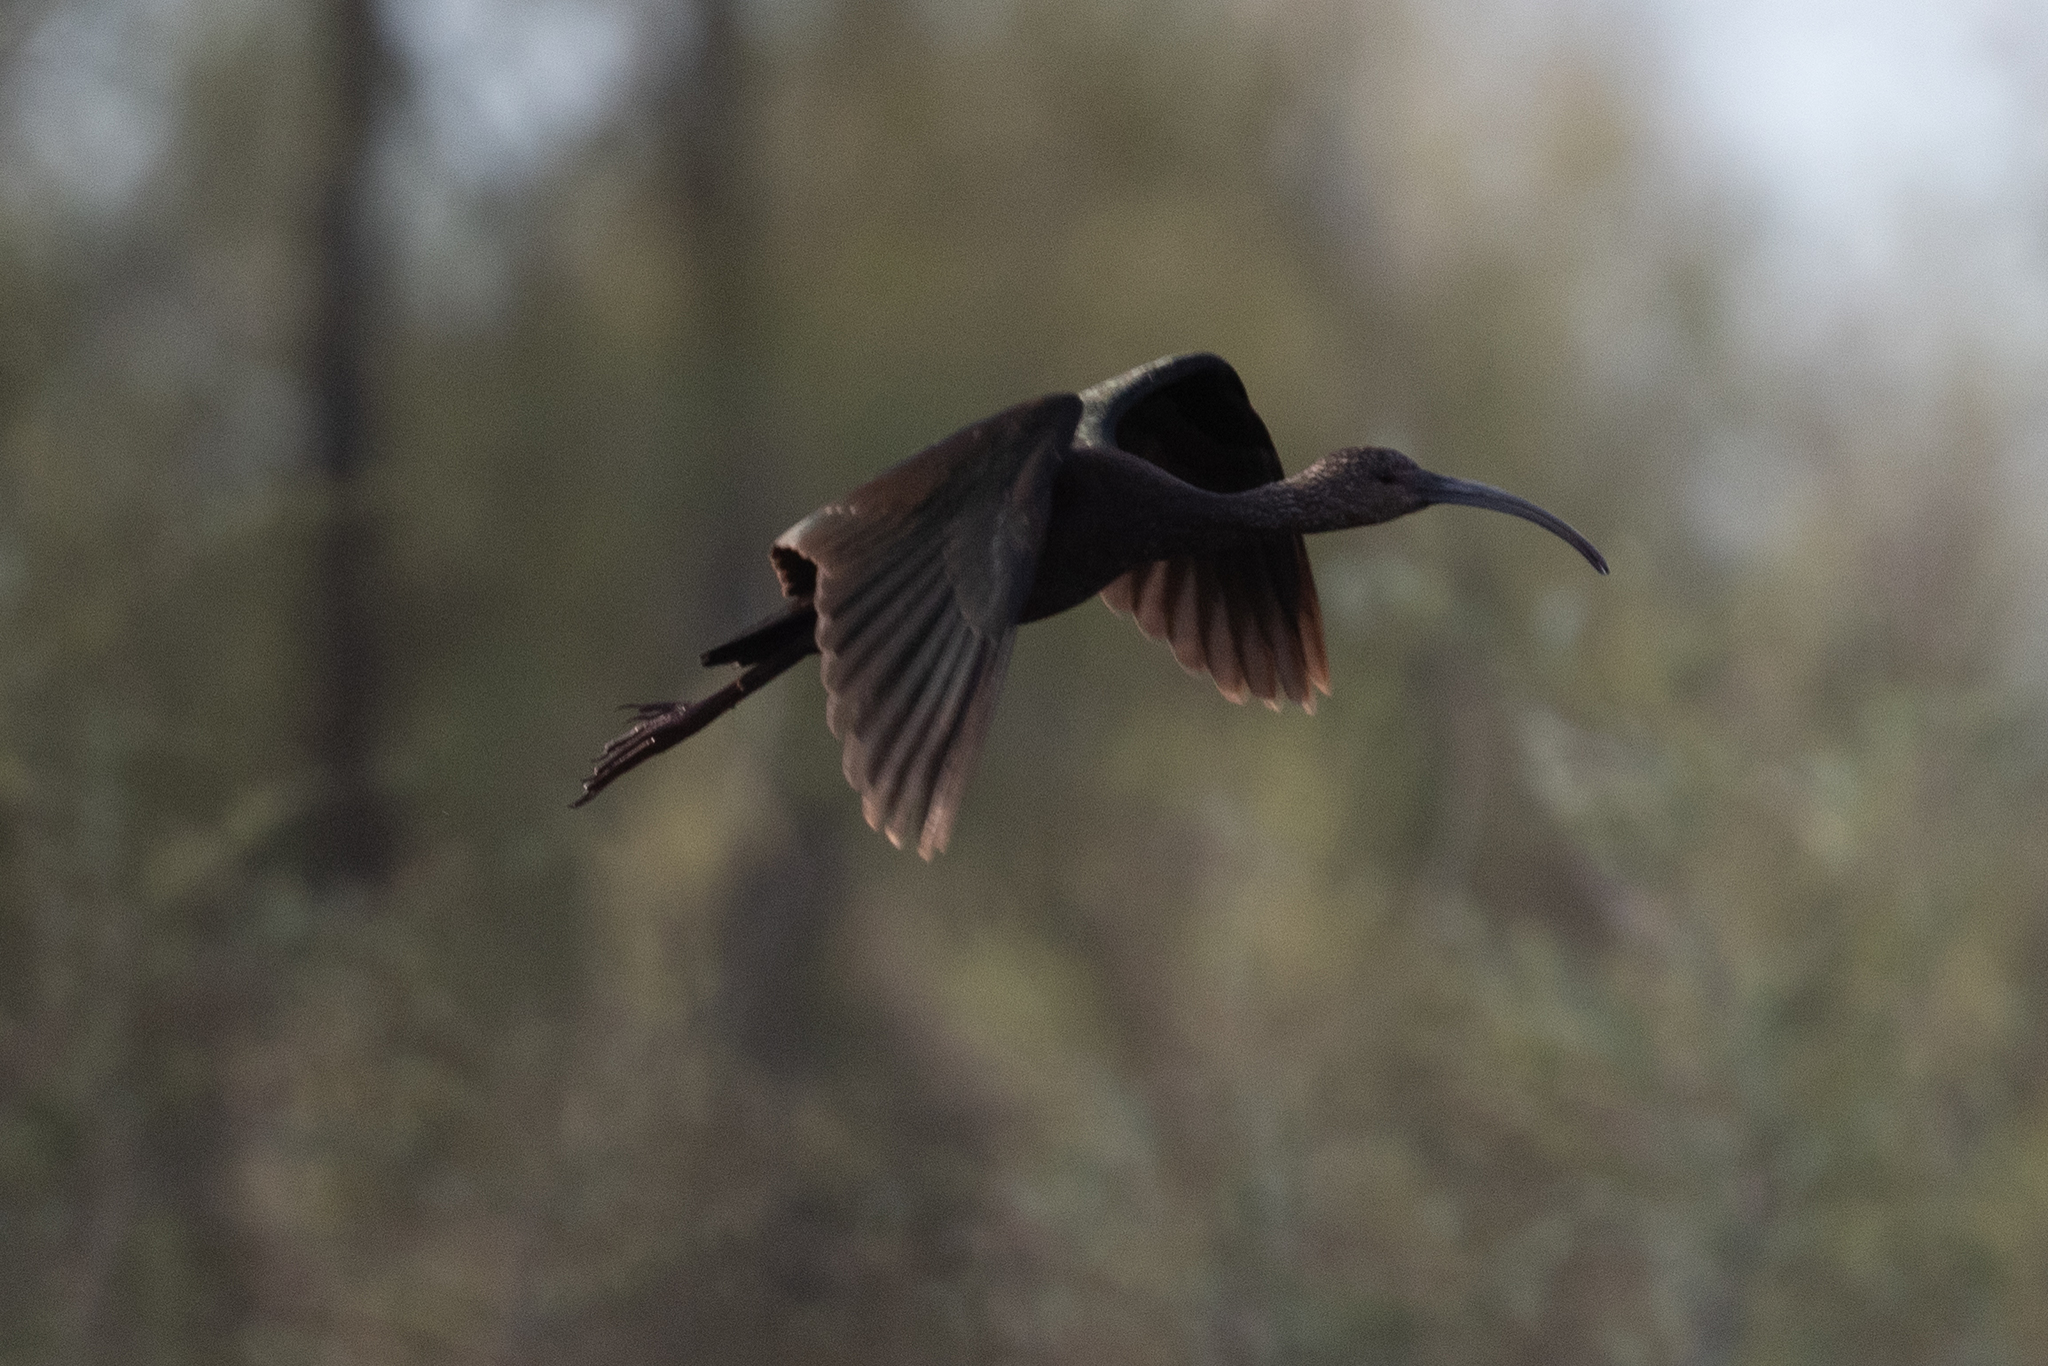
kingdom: Animalia
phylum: Chordata
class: Aves
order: Pelecaniformes
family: Threskiornithidae
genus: Plegadis
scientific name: Plegadis chihi
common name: White-faced ibis
